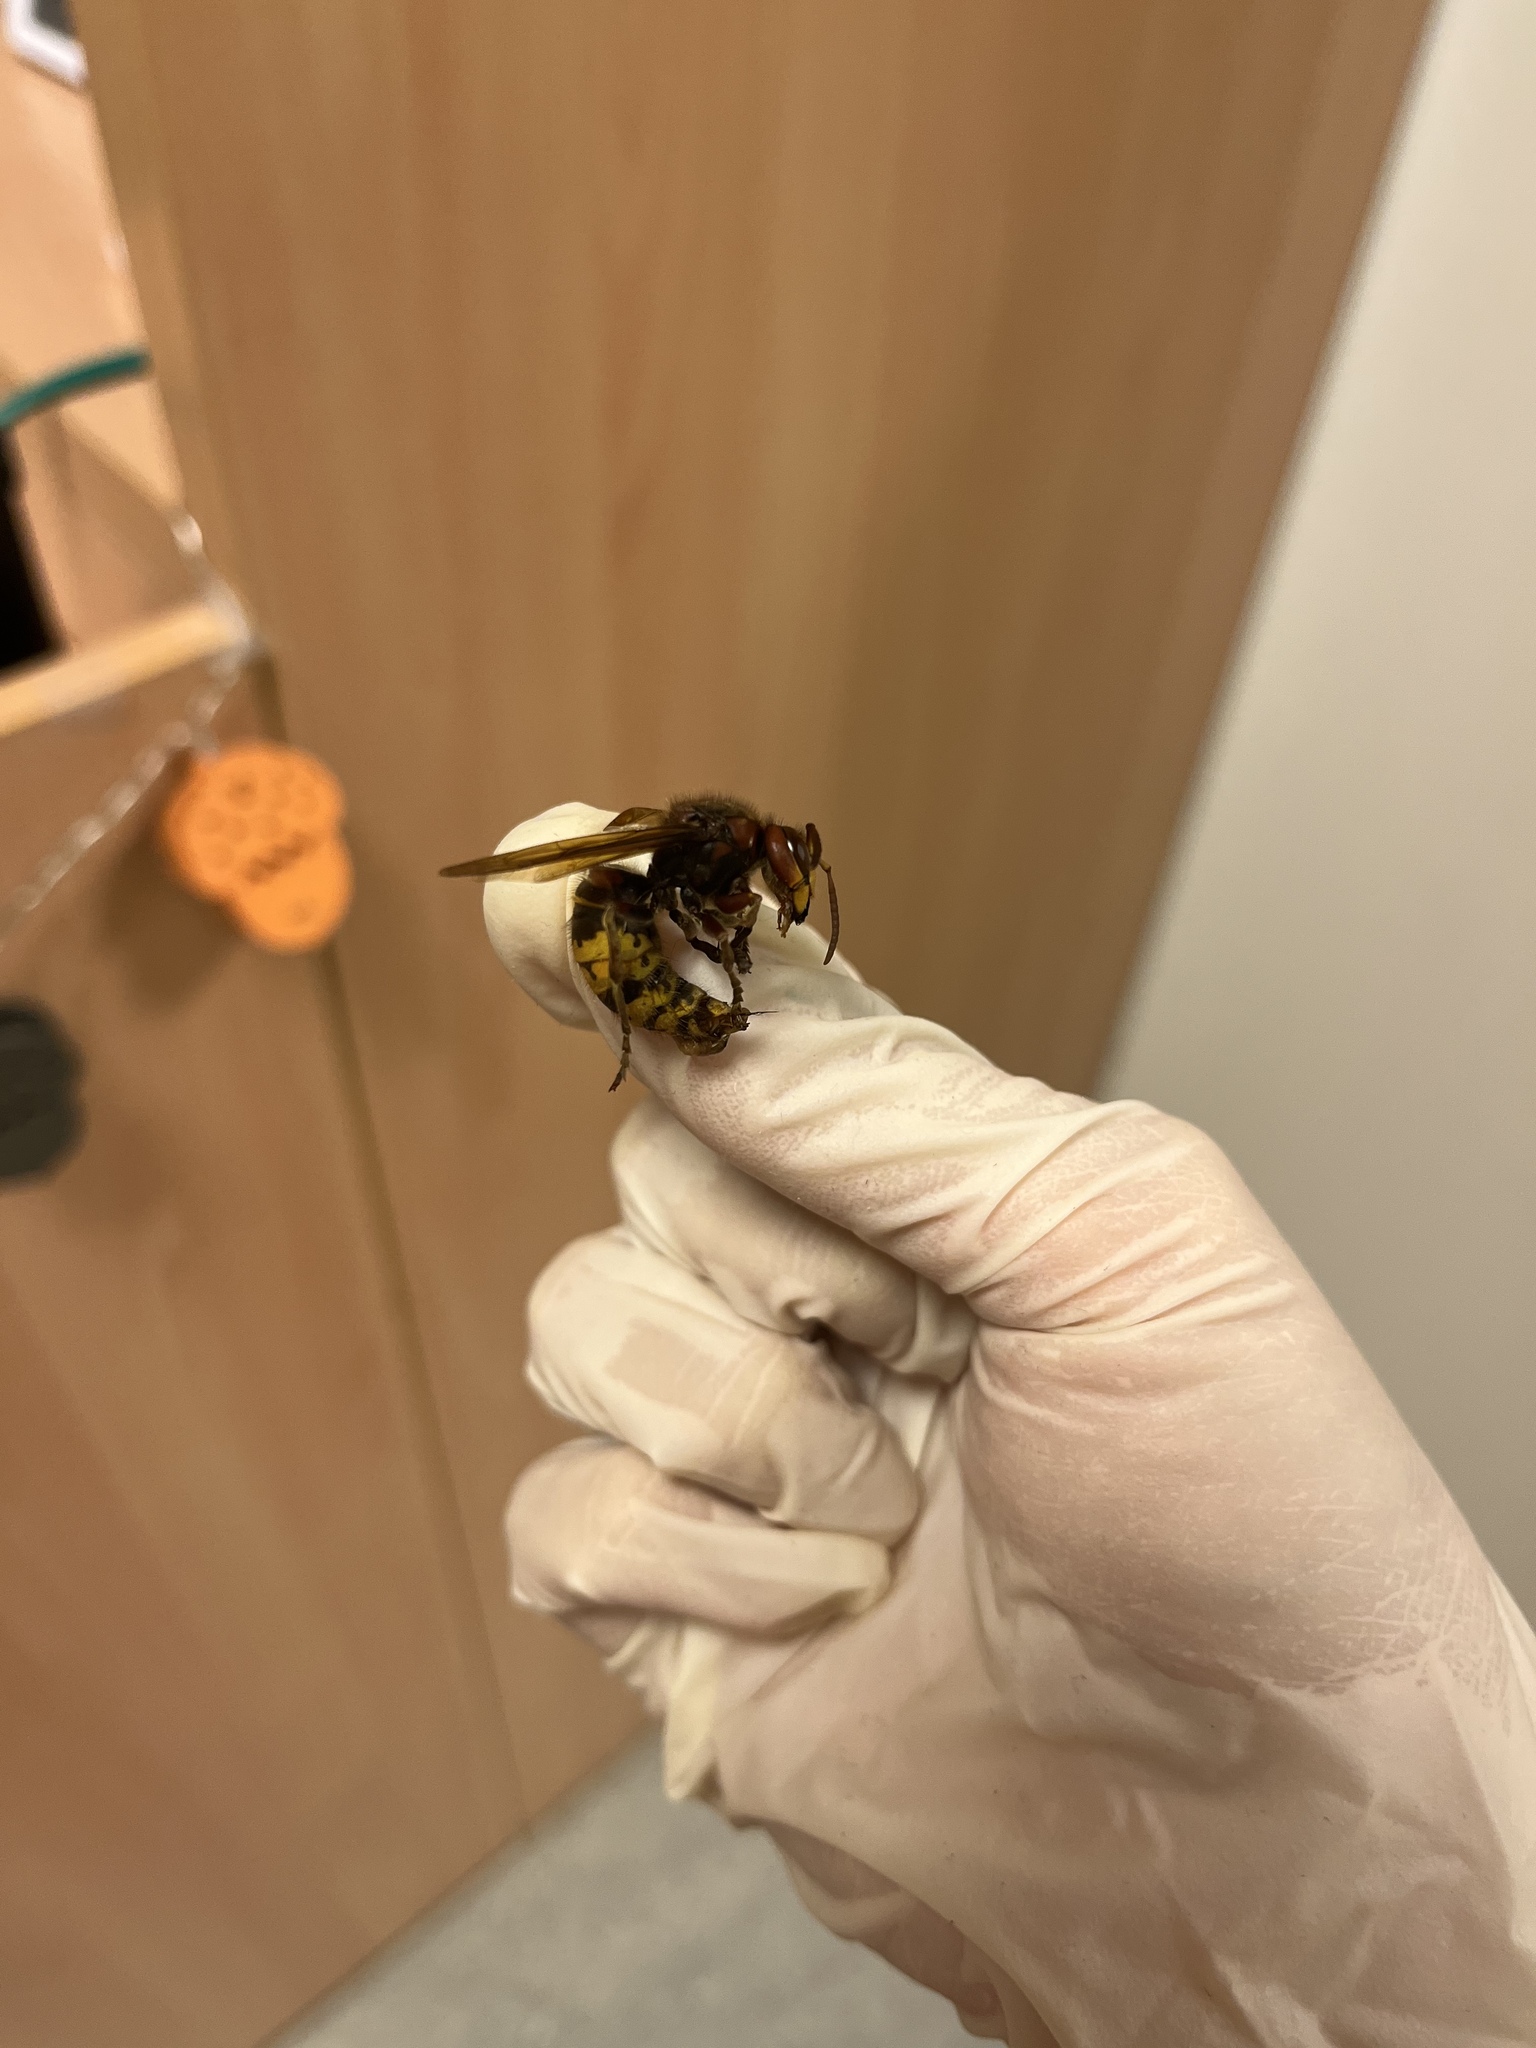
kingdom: Animalia
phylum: Arthropoda
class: Insecta
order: Hymenoptera
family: Vespidae
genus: Vespa
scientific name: Vespa crabro
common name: Hornet
